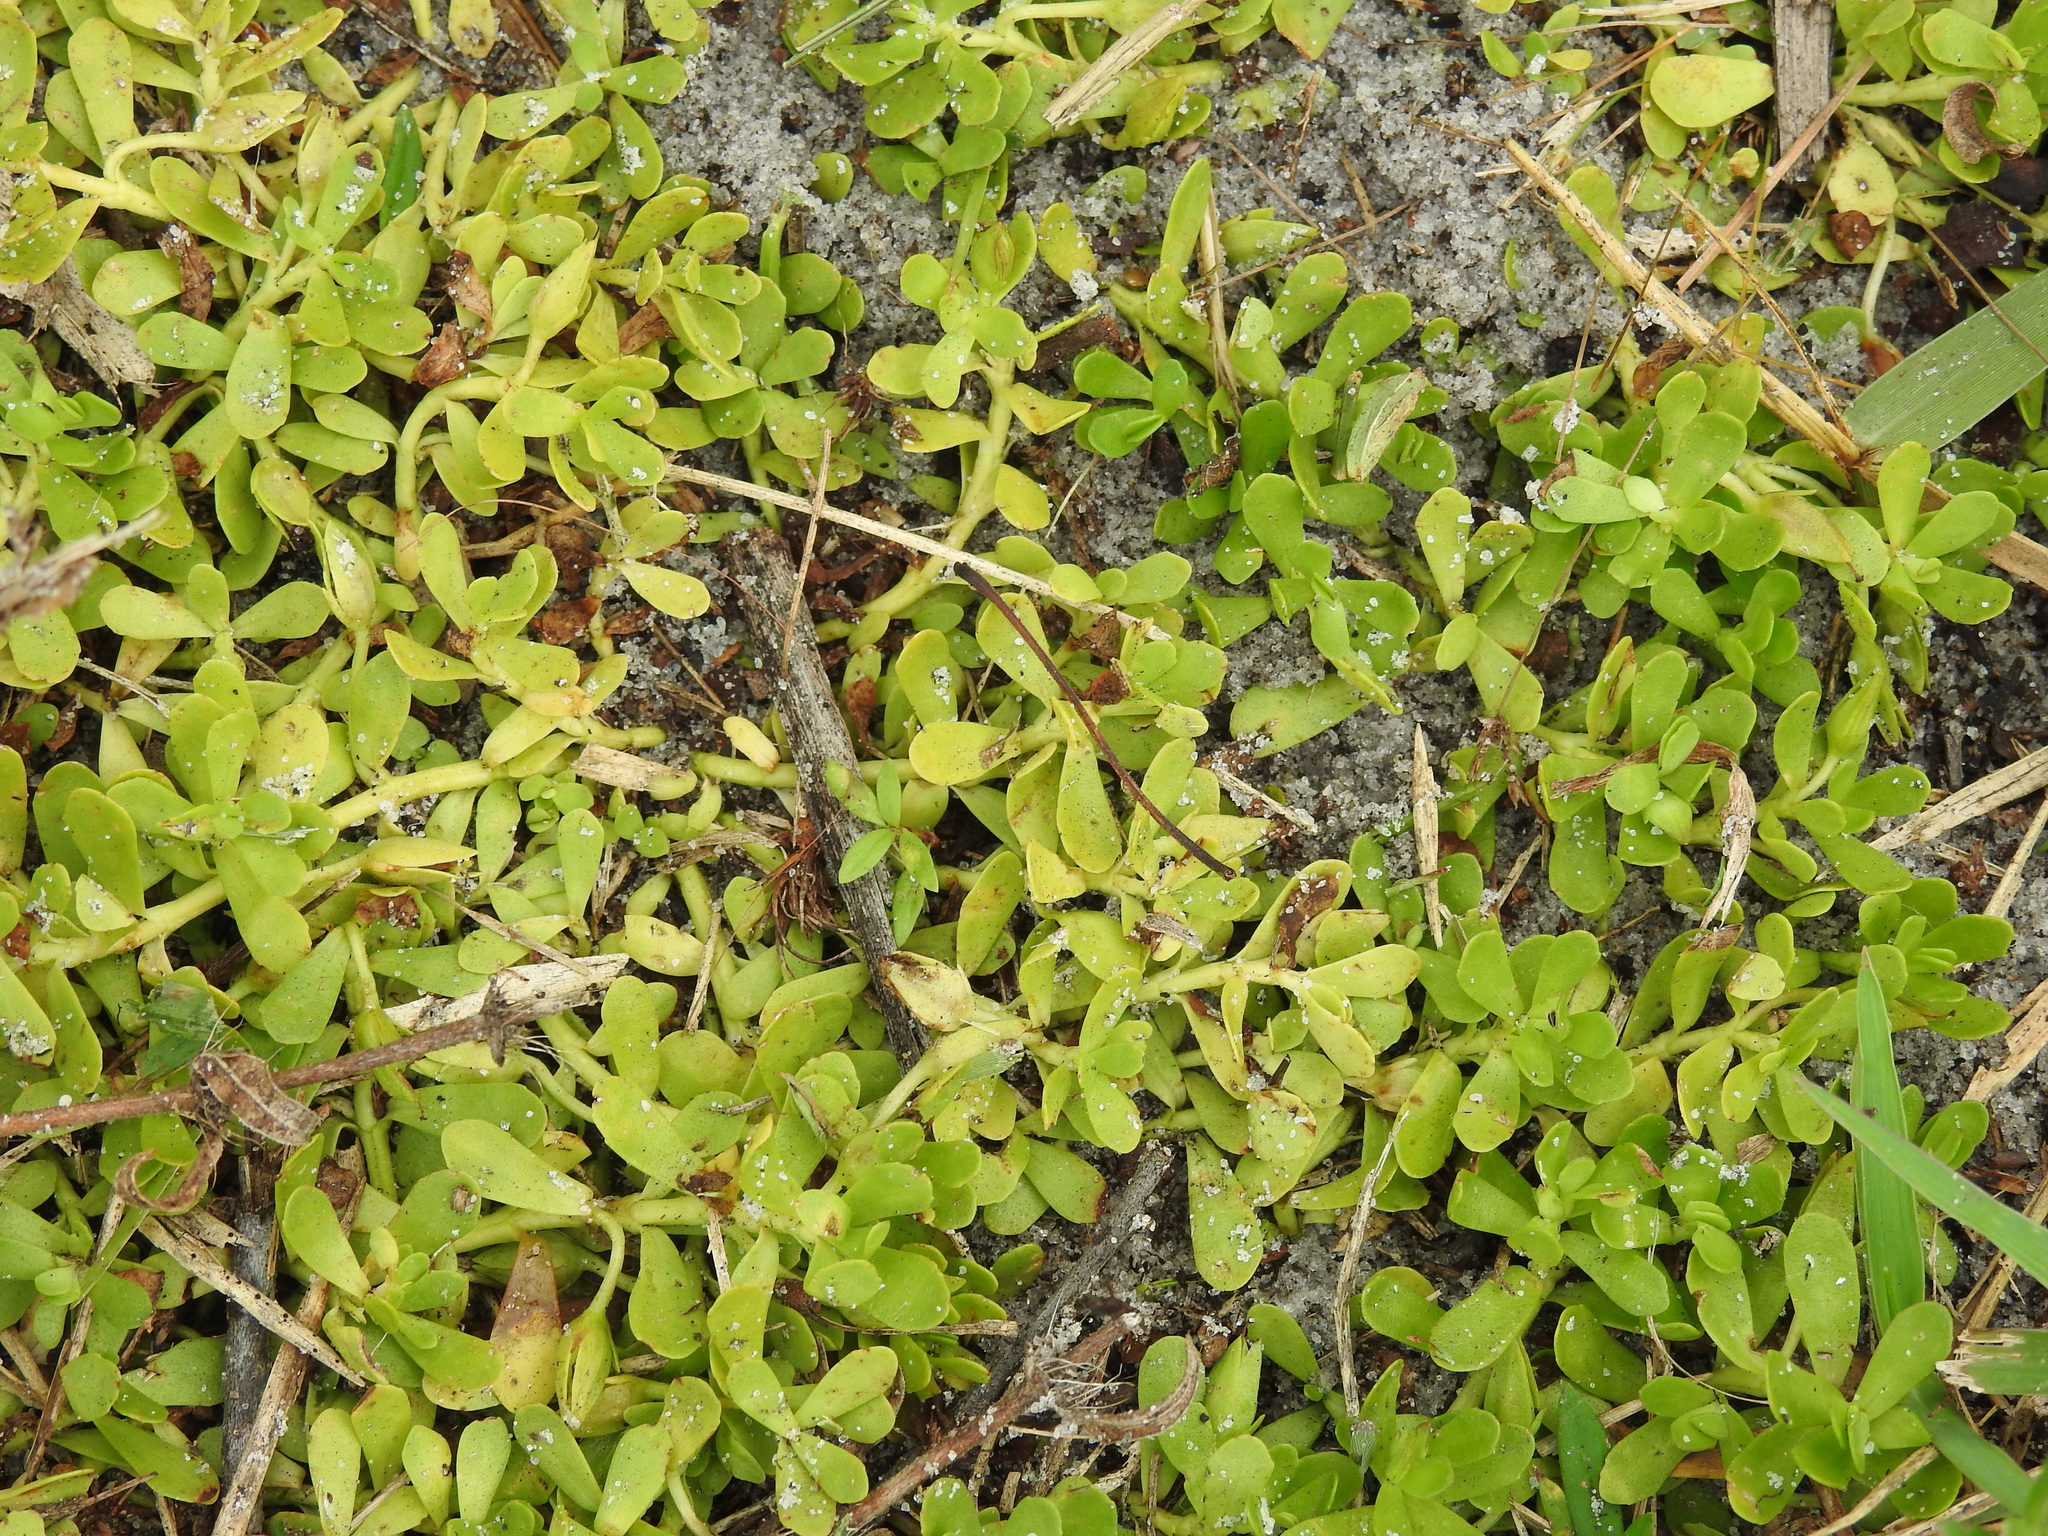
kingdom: Plantae
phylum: Tracheophyta
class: Magnoliopsida
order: Lamiales
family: Plantaginaceae
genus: Bacopa
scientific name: Bacopa monnieri
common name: Indian-pennywort
